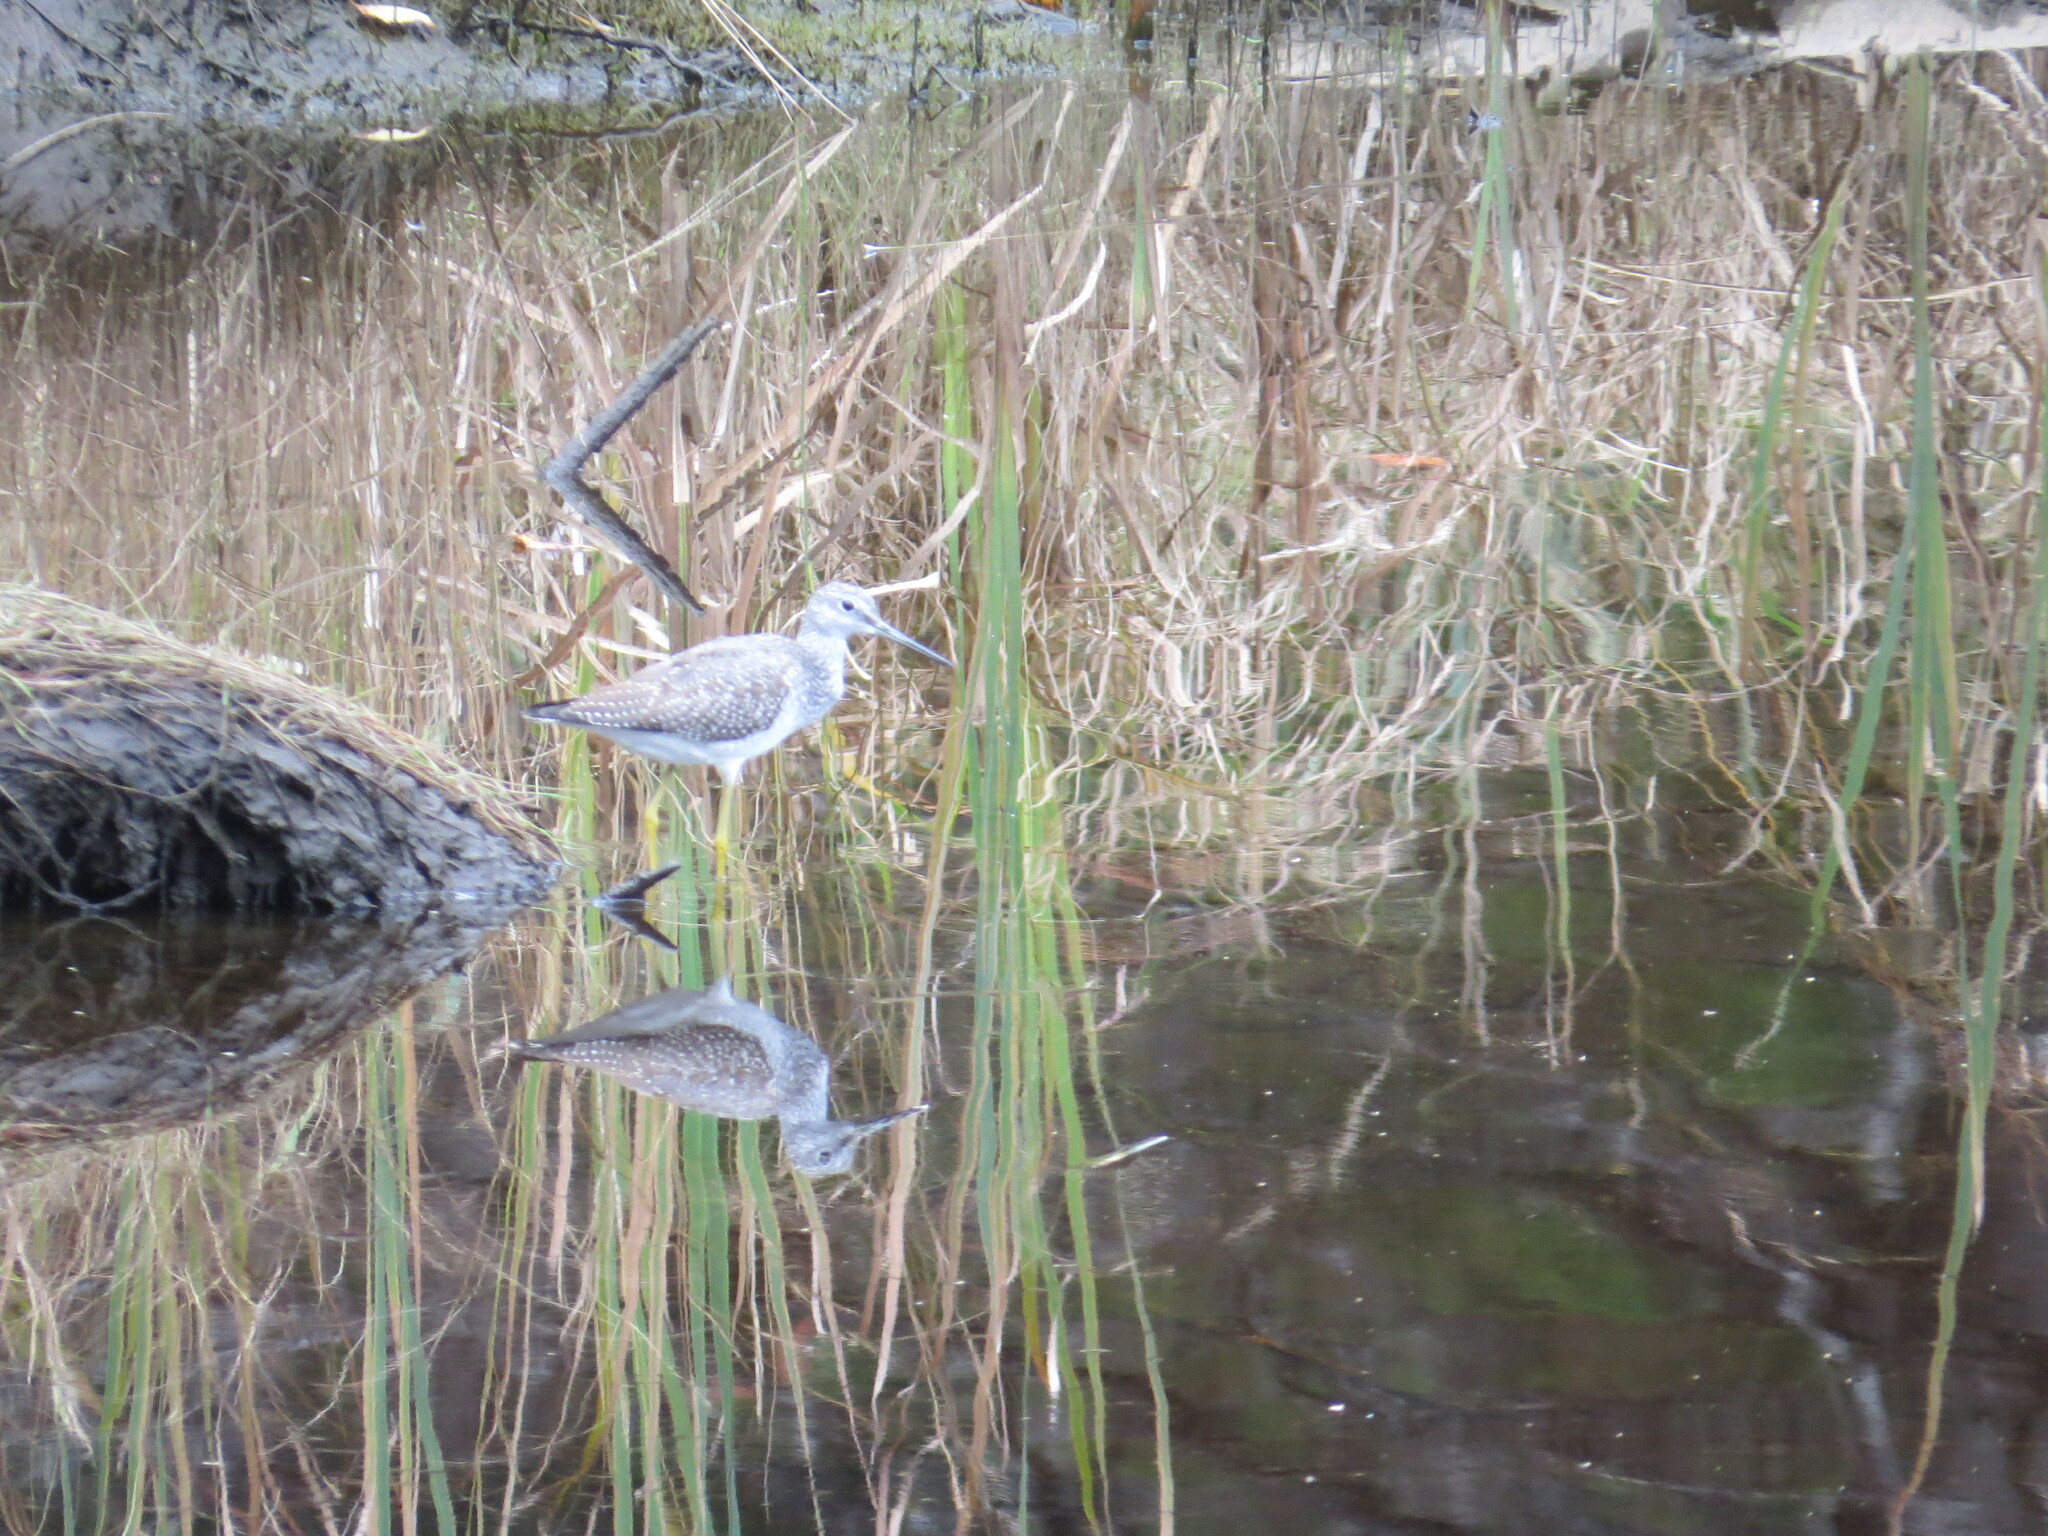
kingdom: Animalia
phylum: Chordata
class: Aves
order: Charadriiformes
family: Scolopacidae
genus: Tringa
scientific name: Tringa melanoleuca
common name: Greater yellowlegs
